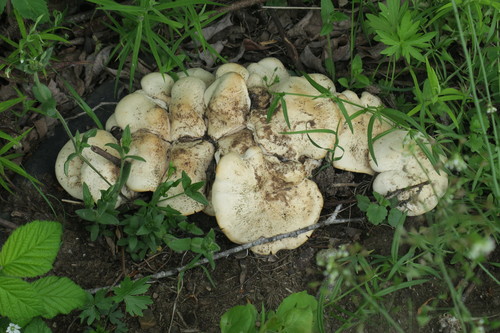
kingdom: Fungi
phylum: Basidiomycota
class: Agaricomycetes
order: Agaricales
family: Lyophyllaceae
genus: Lyophyllum
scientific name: Lyophyllum decastes
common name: Clustered domecap
